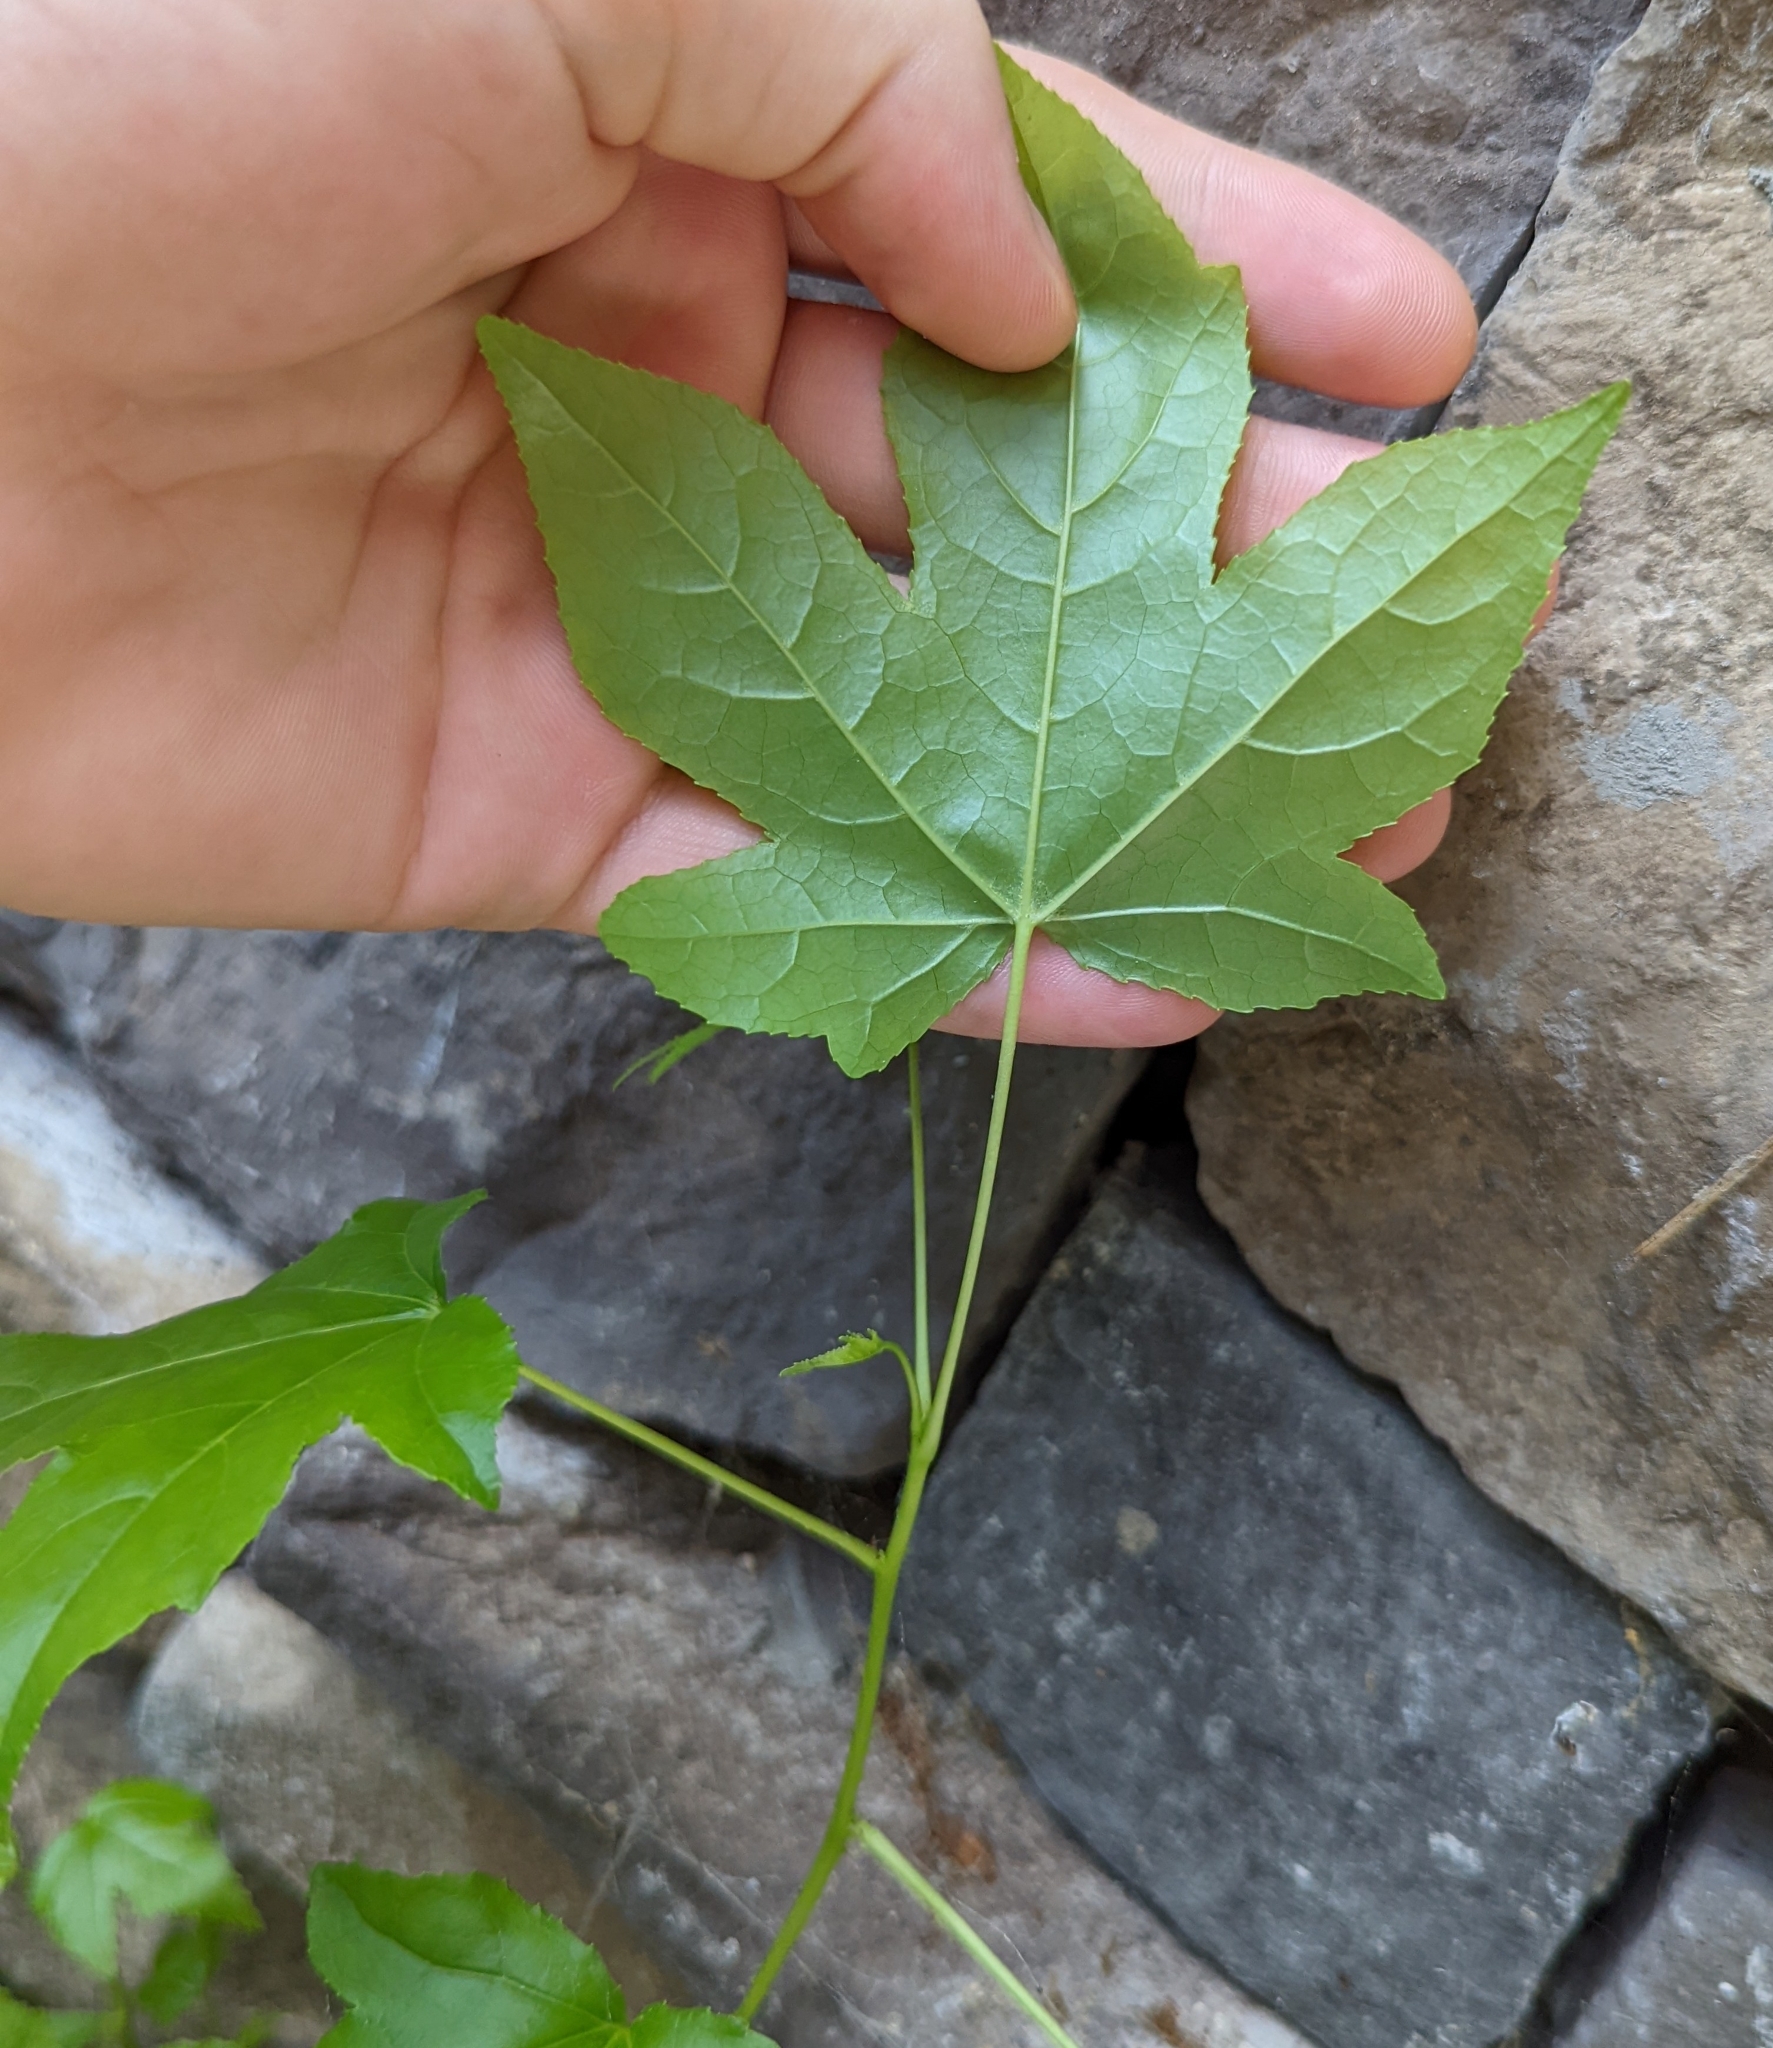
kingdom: Plantae
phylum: Tracheophyta
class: Magnoliopsida
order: Saxifragales
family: Altingiaceae
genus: Liquidambar
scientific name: Liquidambar styraciflua
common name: Sweet gum
